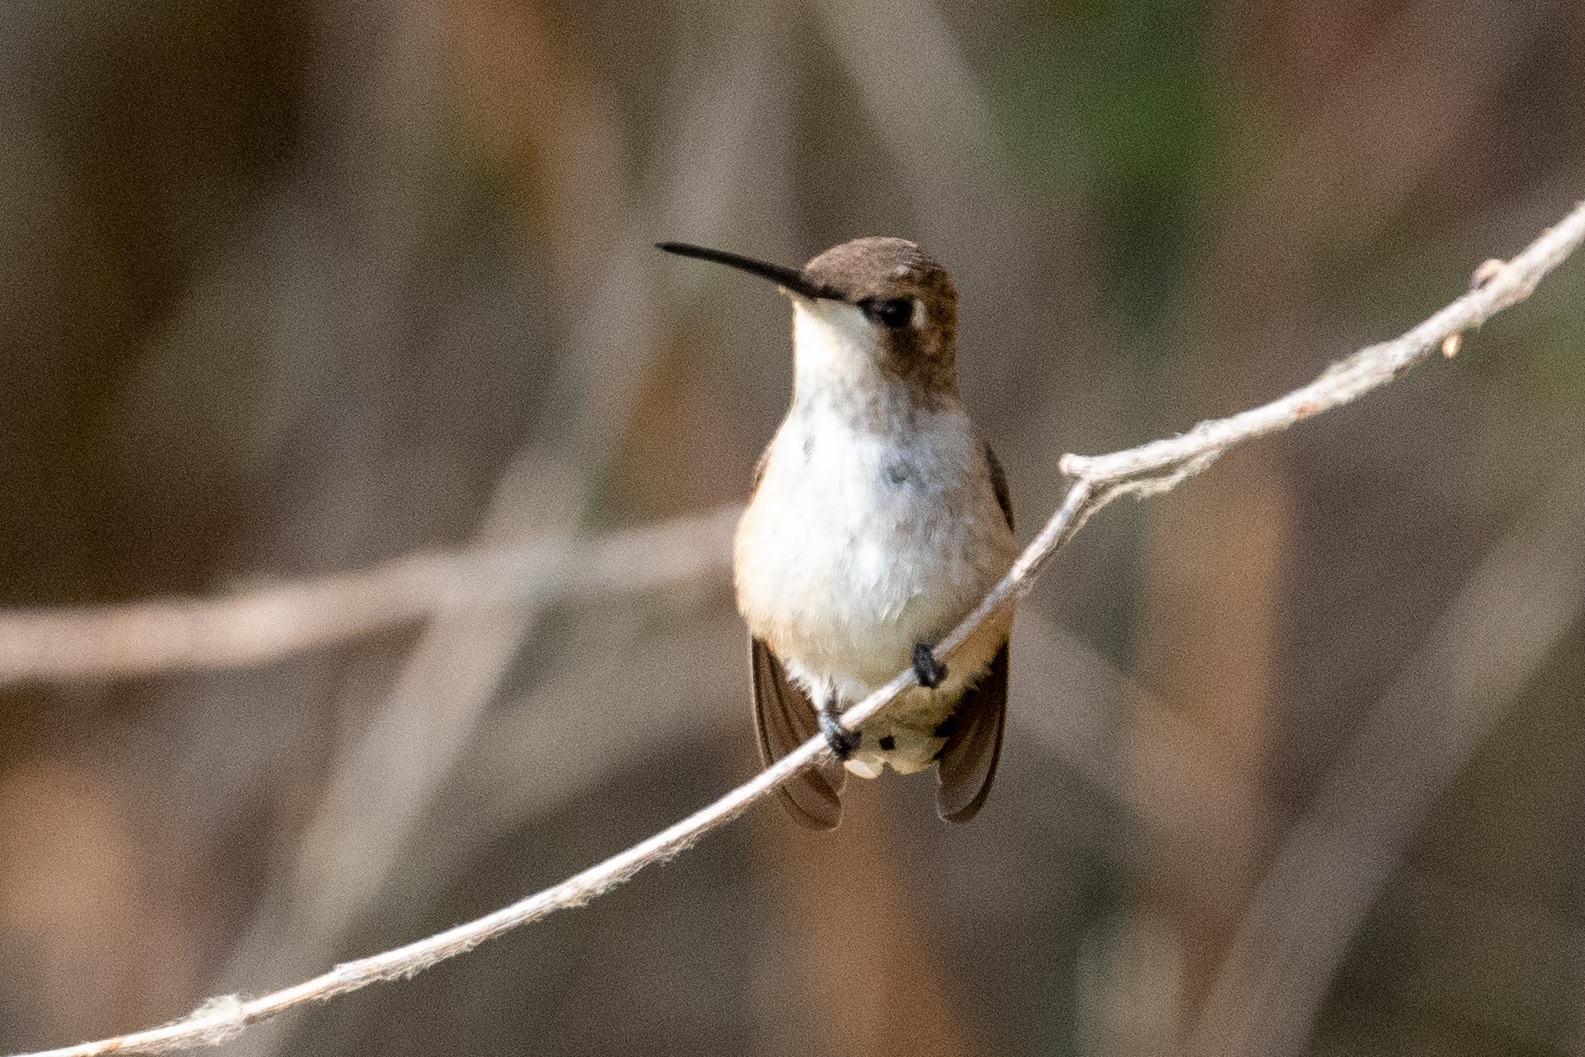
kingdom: Animalia
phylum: Chordata
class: Aves
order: Apodiformes
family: Trochilidae
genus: Archilochus
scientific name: Archilochus alexandri
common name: Black-chinned hummingbird
